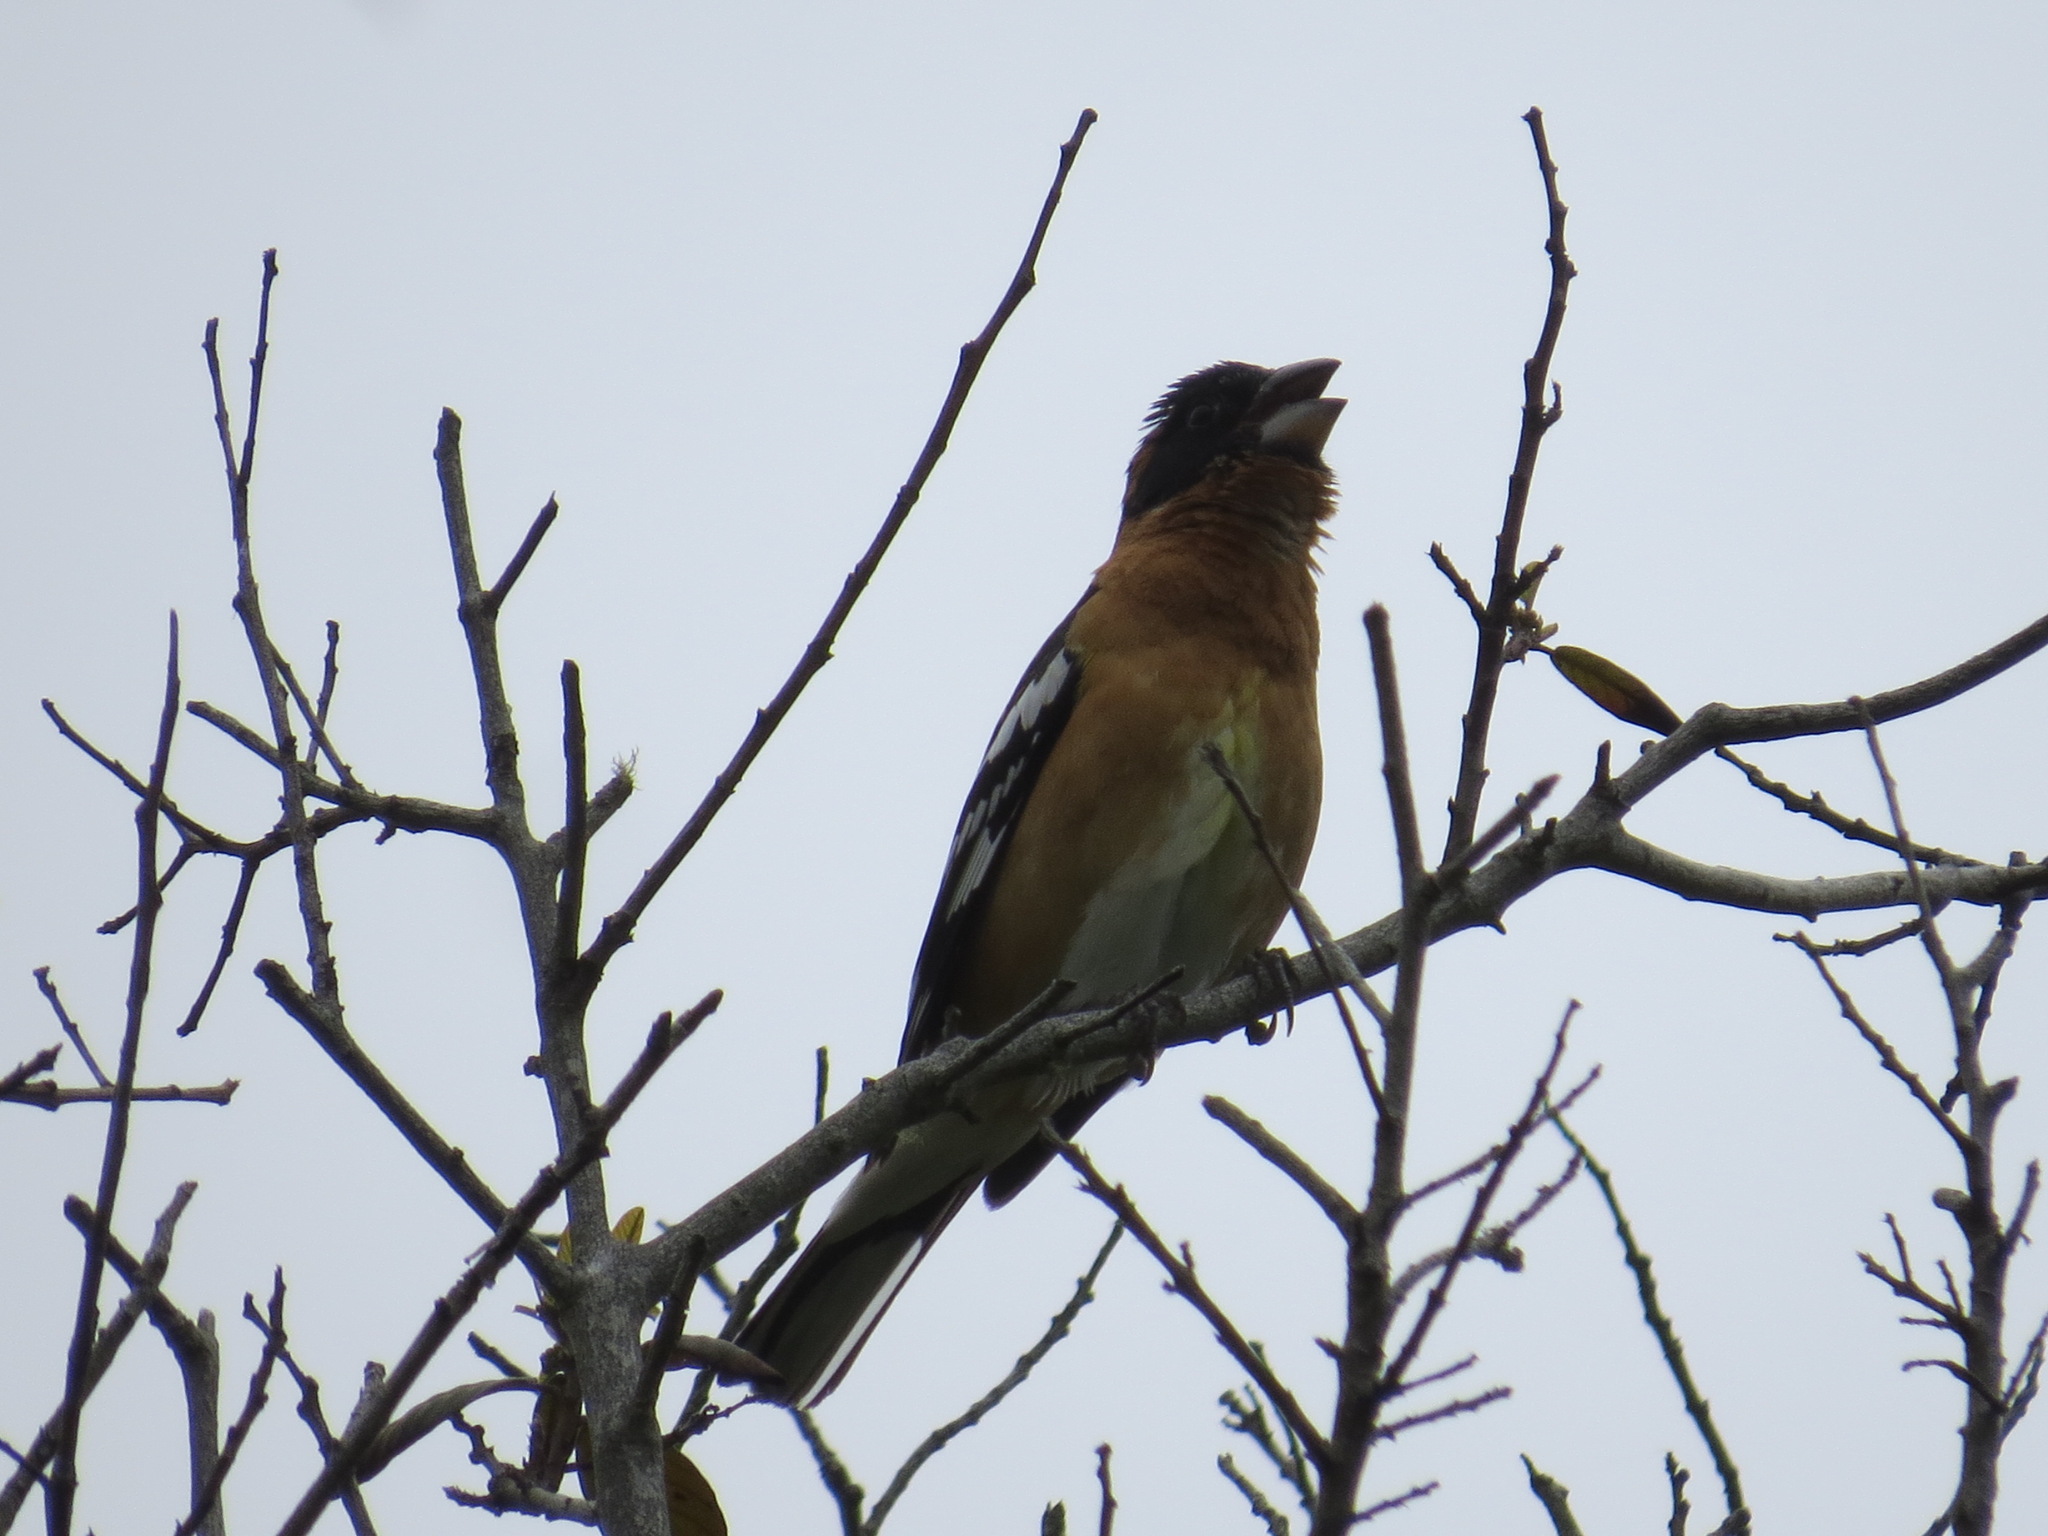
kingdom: Animalia
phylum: Chordata
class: Aves
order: Passeriformes
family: Cardinalidae
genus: Pheucticus
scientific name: Pheucticus melanocephalus
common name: Black-headed grosbeak
